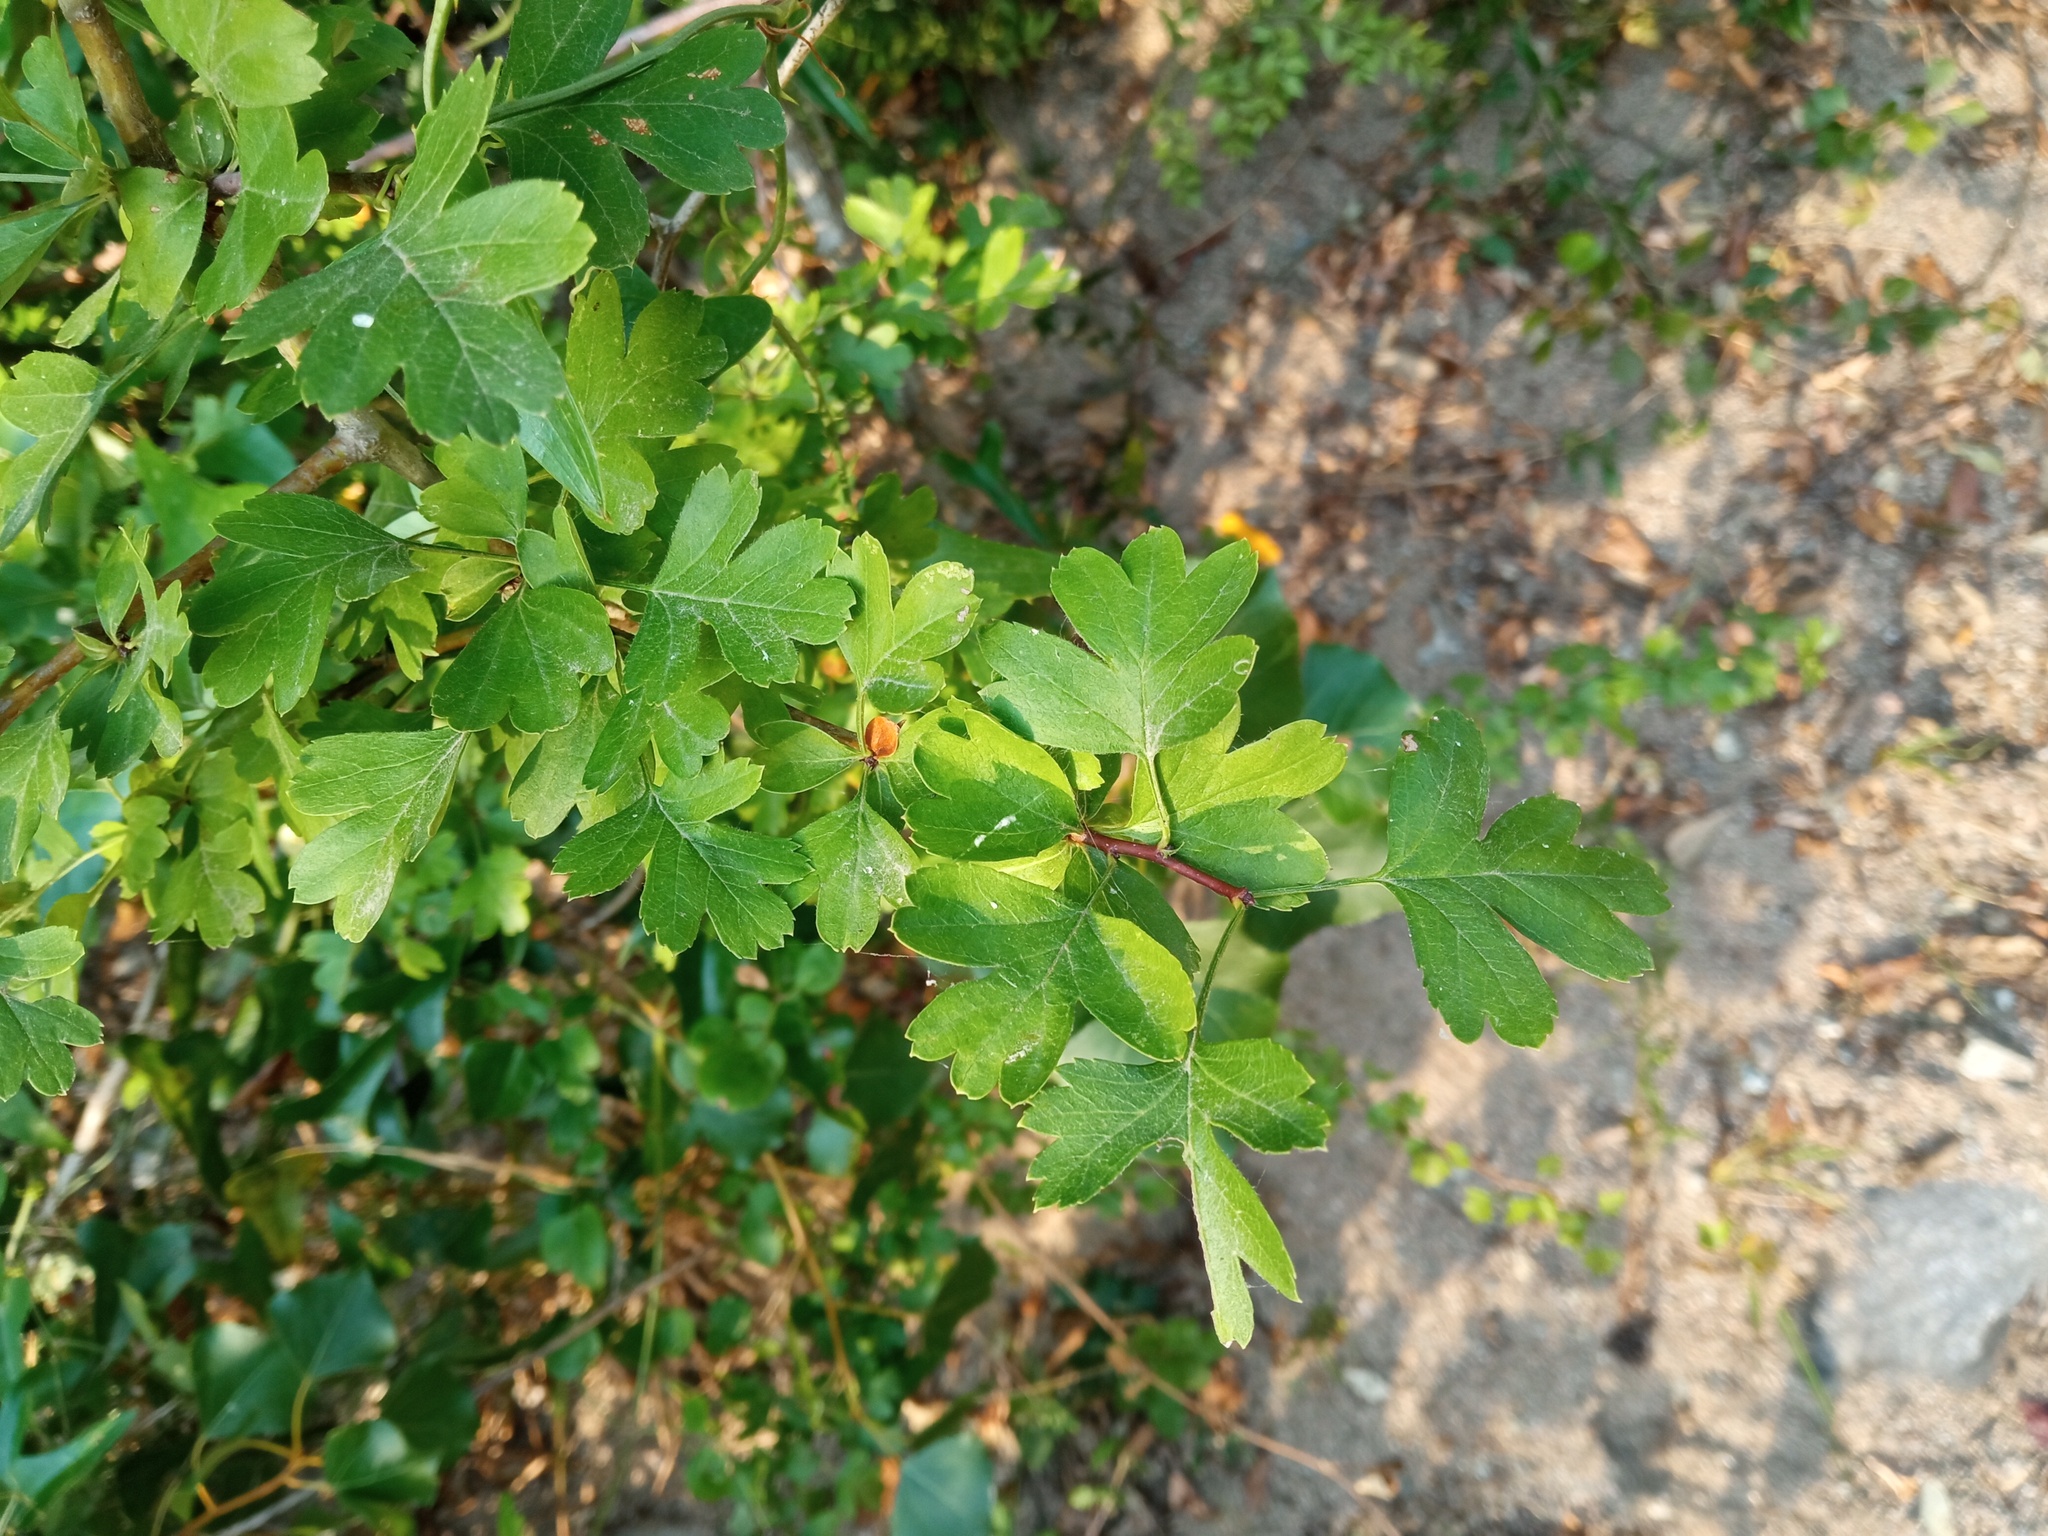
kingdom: Plantae
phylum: Tracheophyta
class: Magnoliopsida
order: Rosales
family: Rosaceae
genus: Crataegus
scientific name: Crataegus monogyna
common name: Hawthorn
